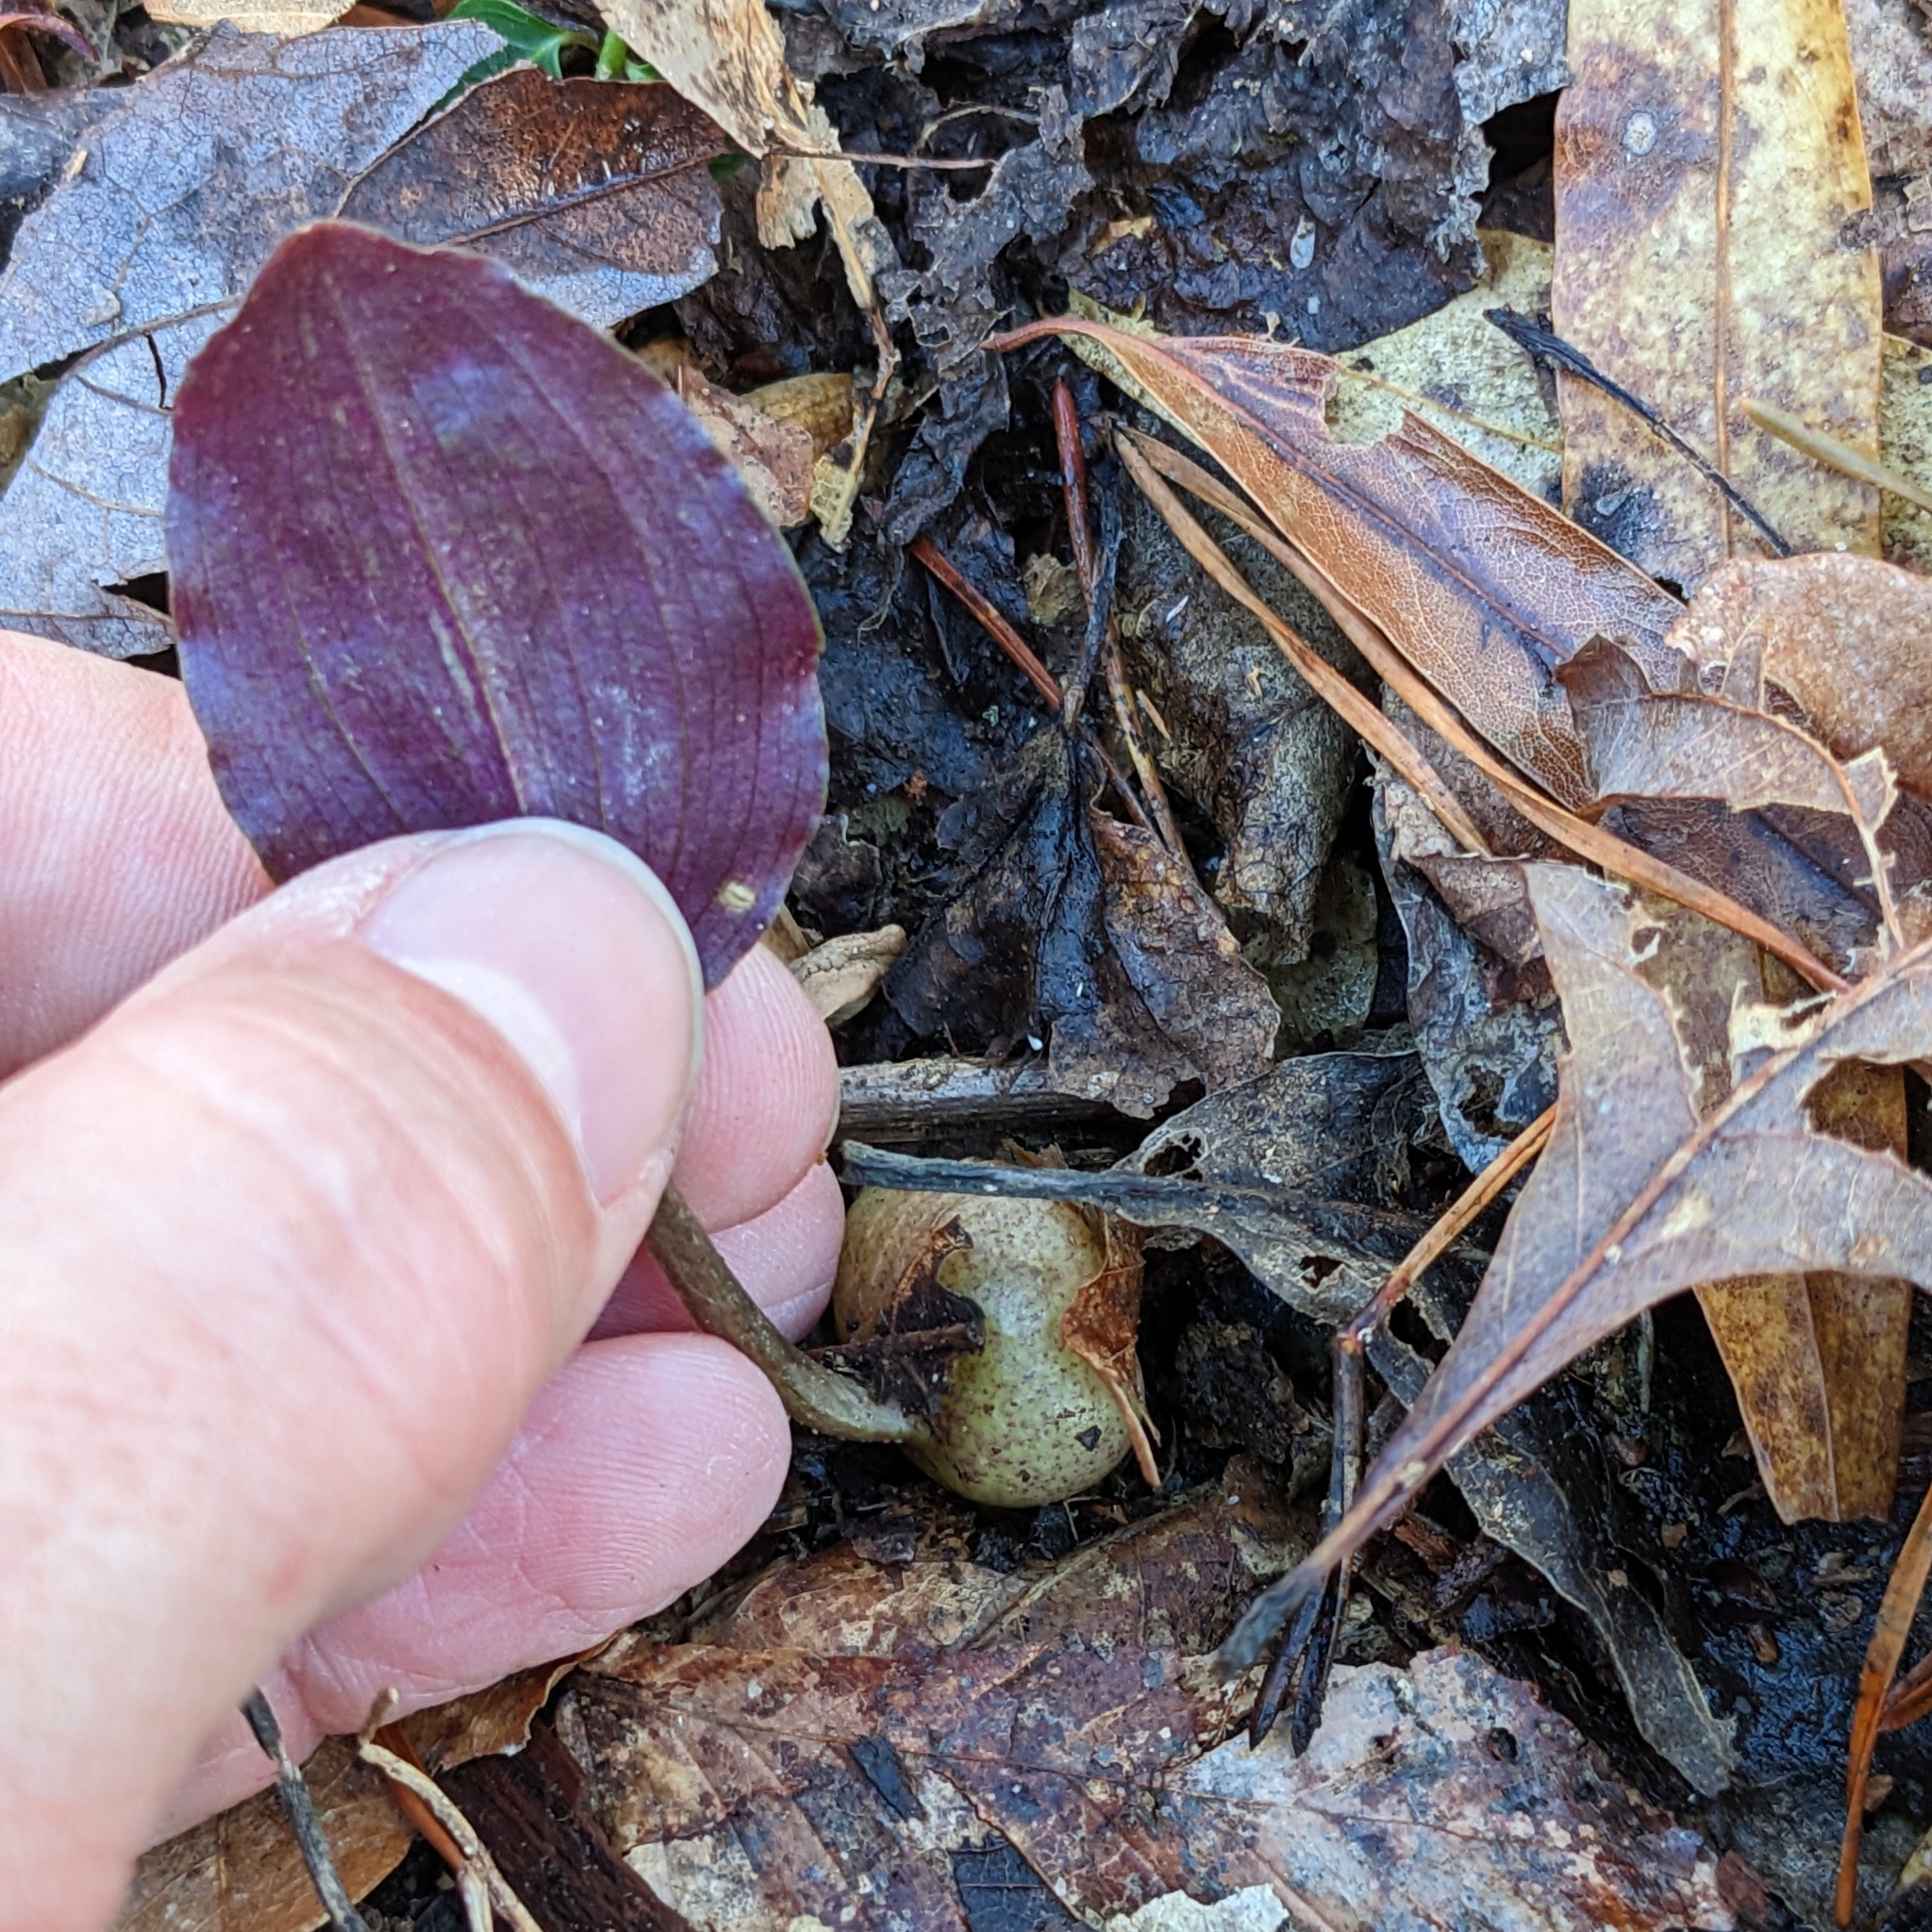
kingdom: Plantae
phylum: Tracheophyta
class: Liliopsida
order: Asparagales
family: Orchidaceae
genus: Tipularia
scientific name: Tipularia discolor
